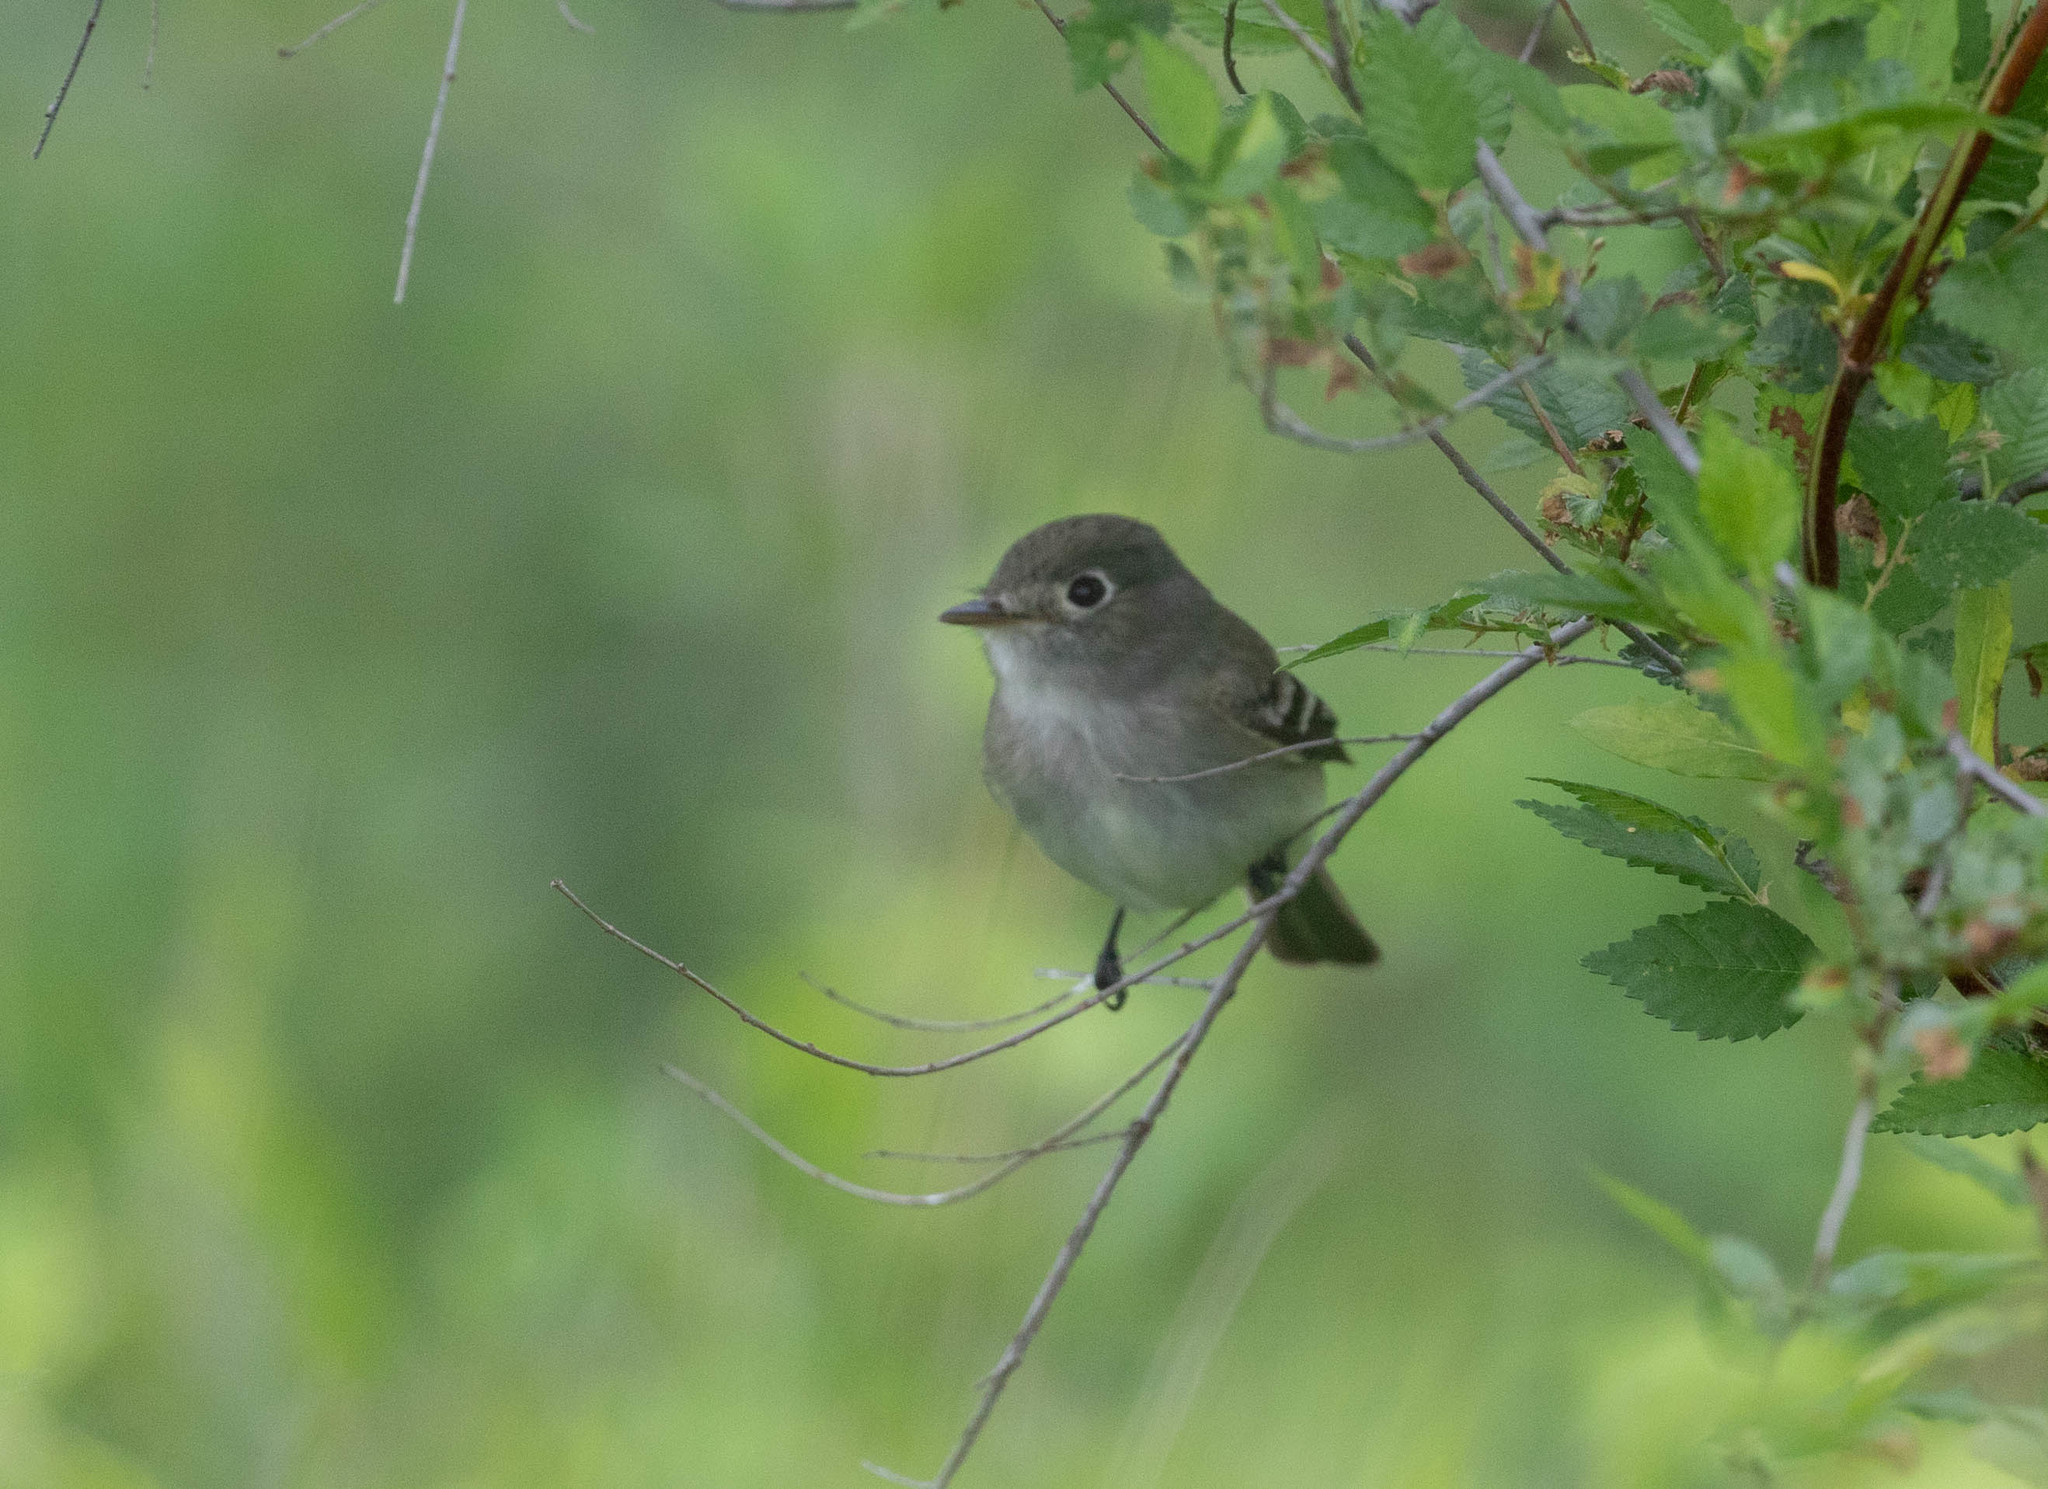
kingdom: Animalia
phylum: Chordata
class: Aves
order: Passeriformes
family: Tyrannidae
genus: Empidonax
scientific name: Empidonax minimus
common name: Least flycatcher
